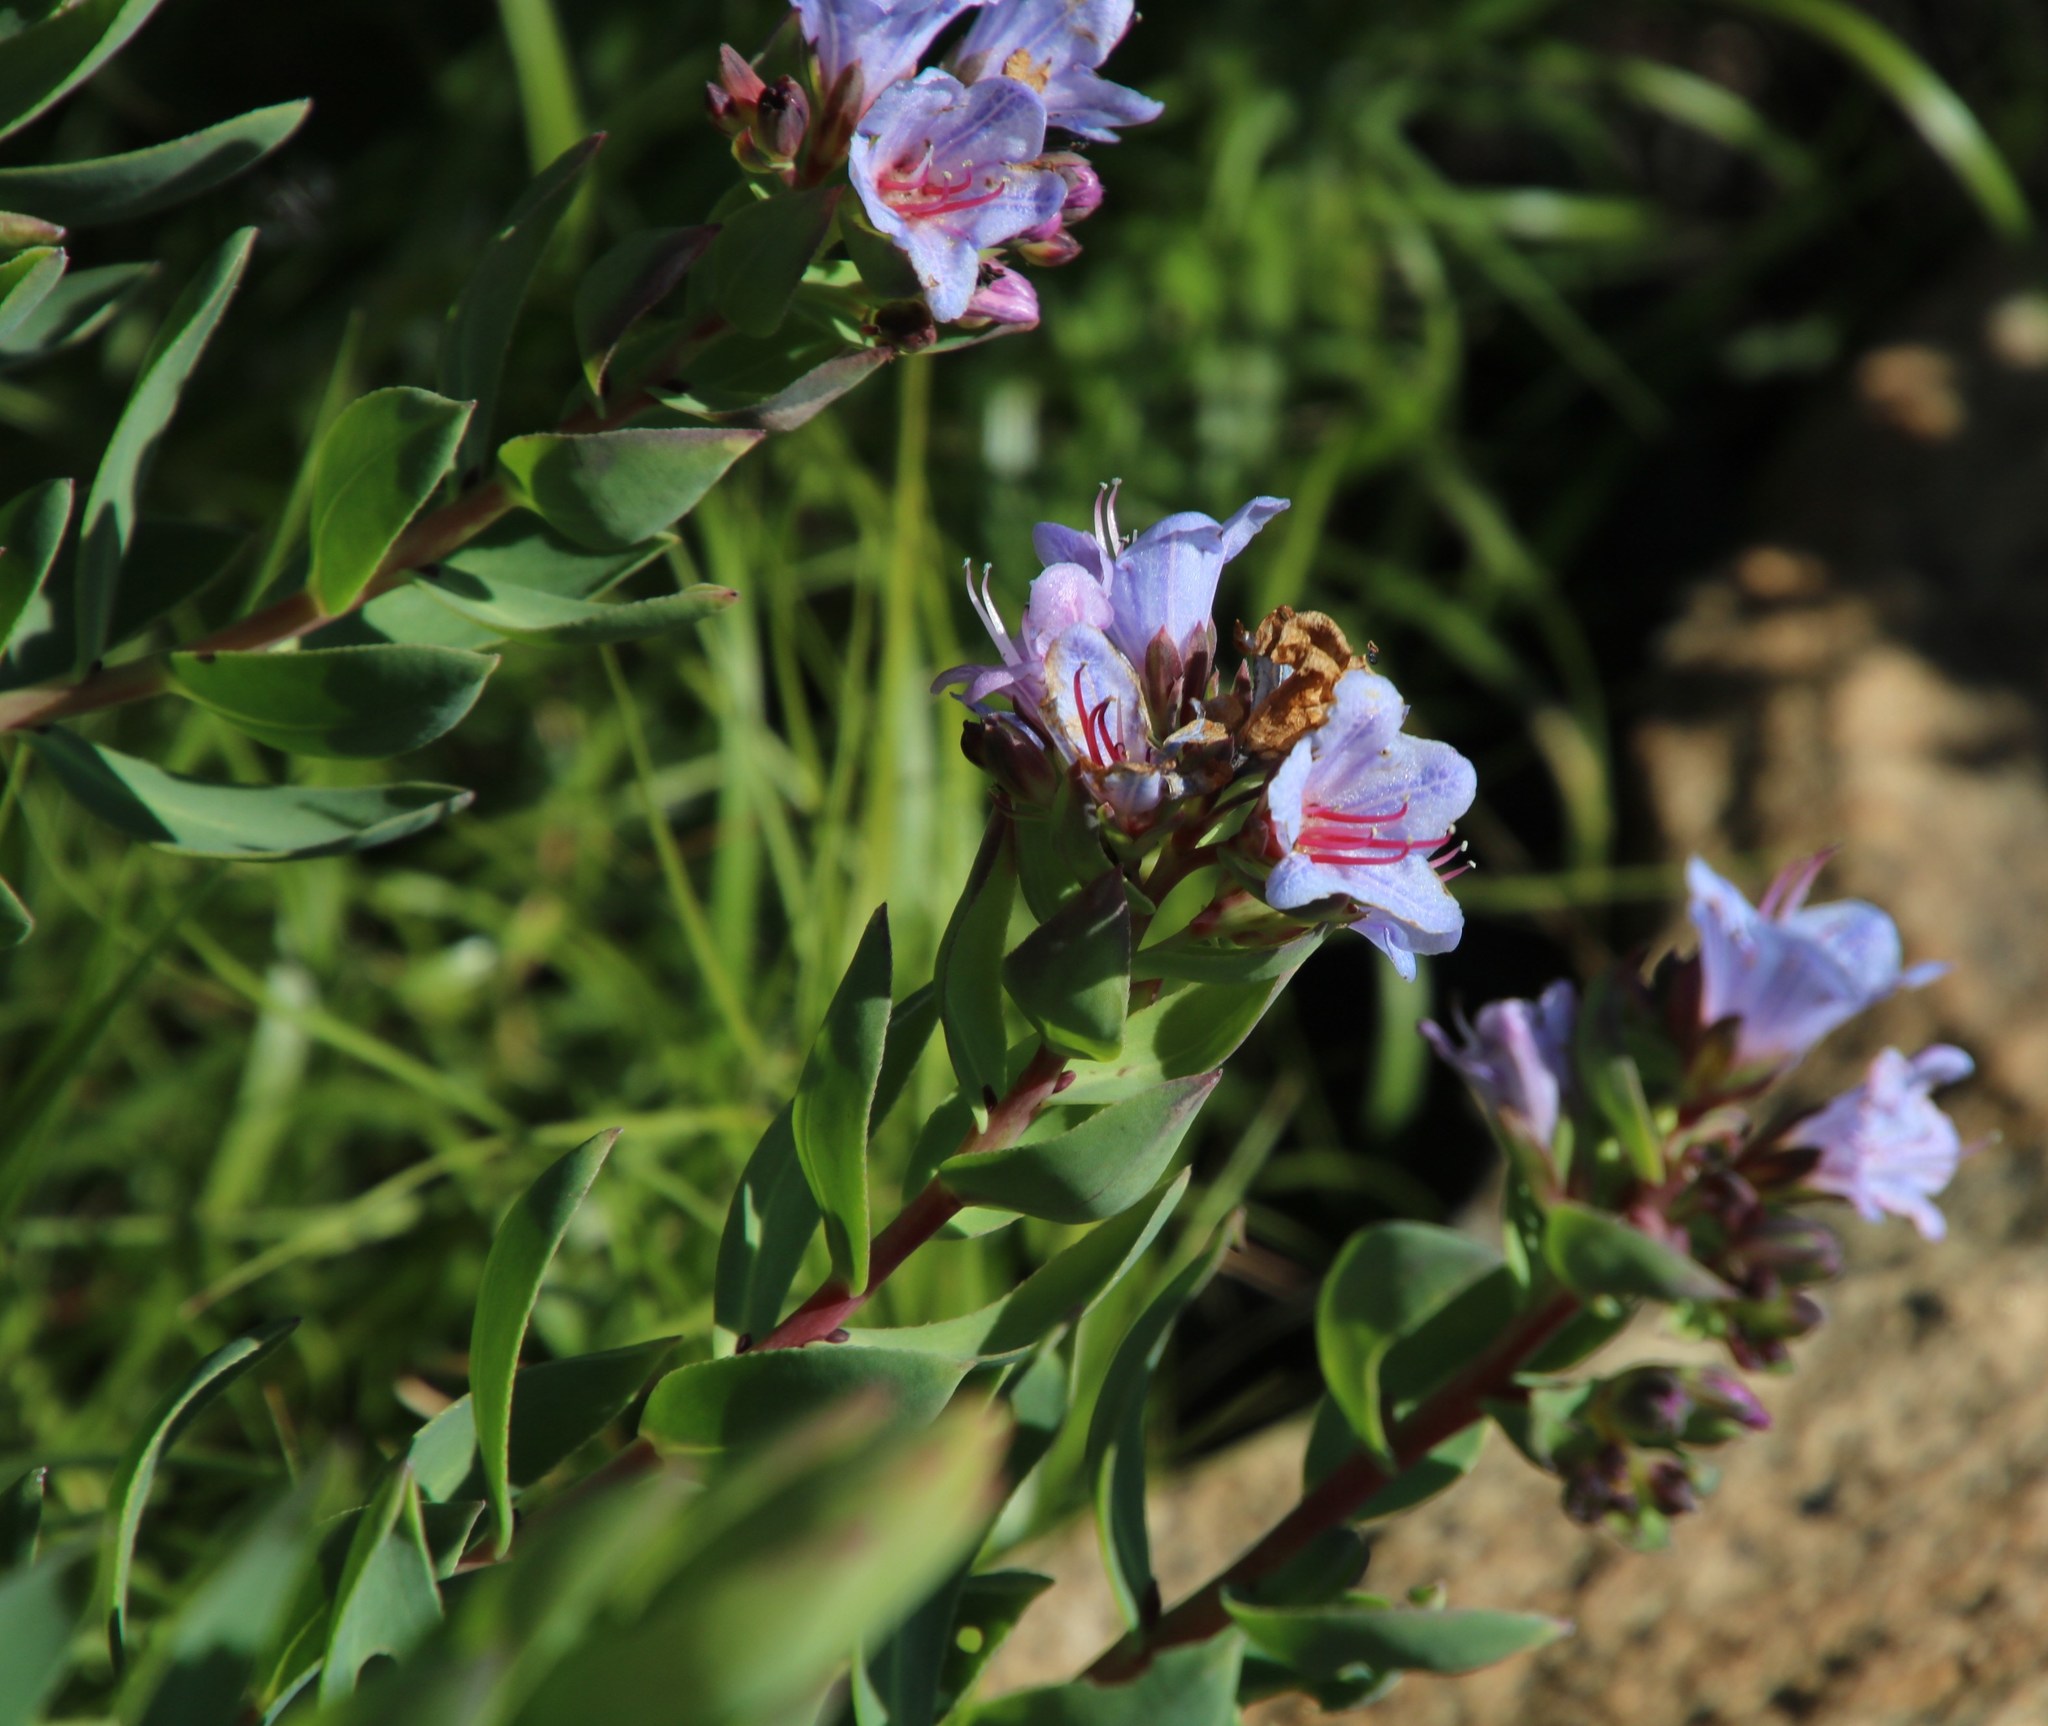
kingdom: Plantae
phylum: Tracheophyta
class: Magnoliopsida
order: Boraginales
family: Boraginaceae
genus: Lobostemon
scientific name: Lobostemon glaucophyllus
